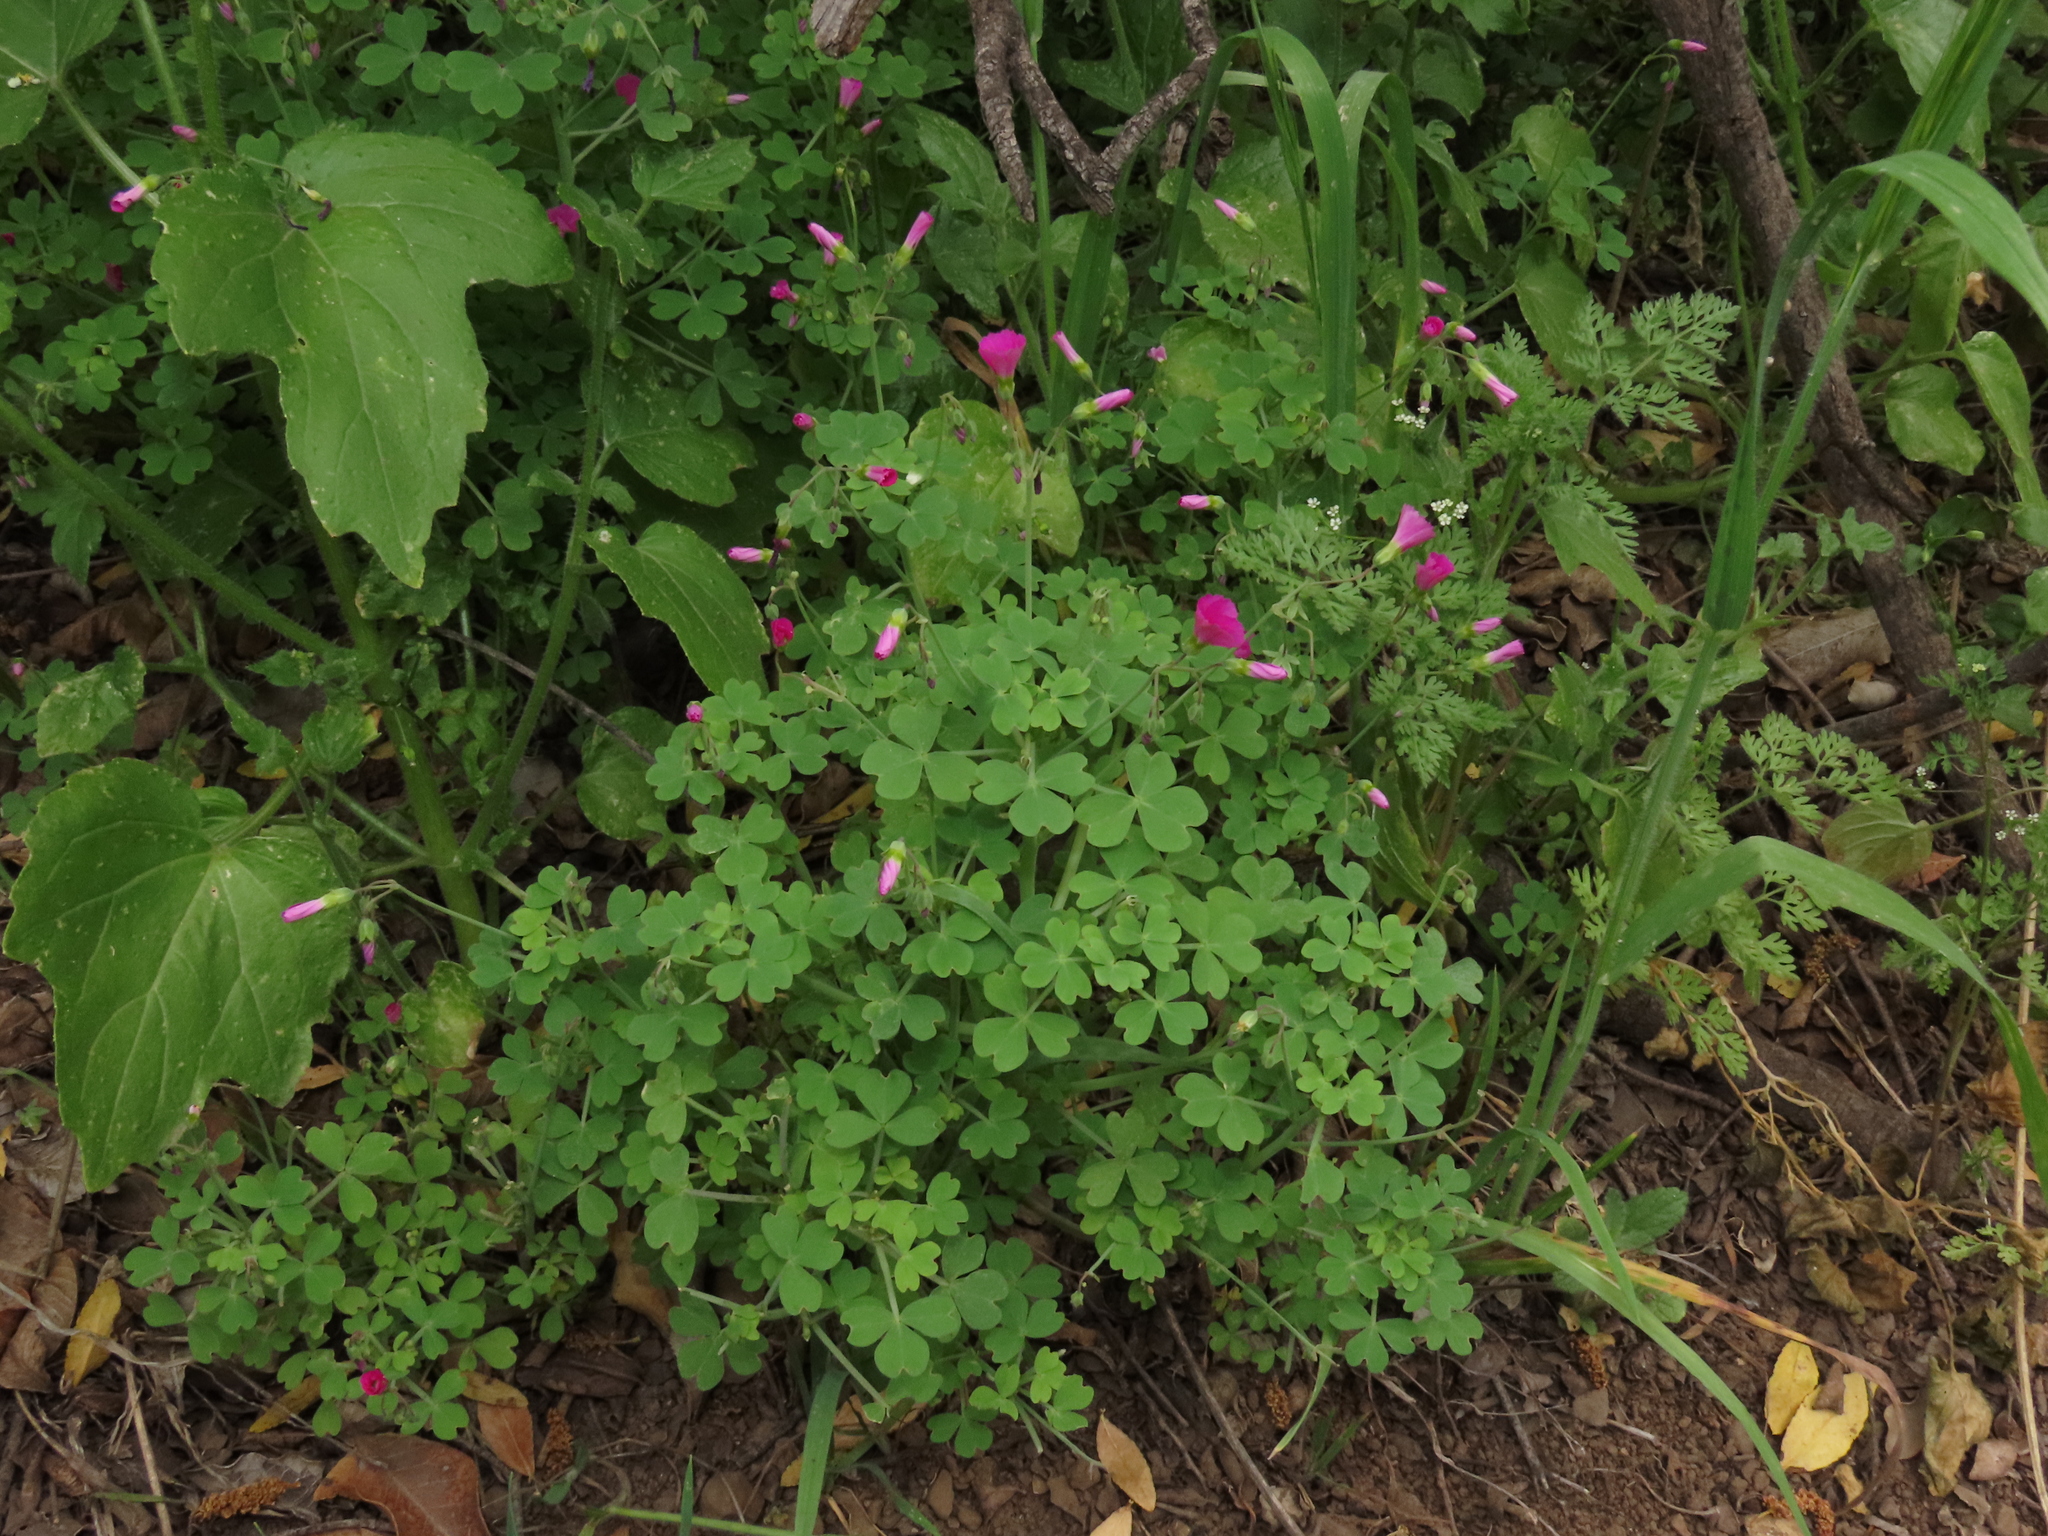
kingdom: Plantae
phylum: Tracheophyta
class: Magnoliopsida
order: Oxalidales
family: Oxalidaceae
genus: Oxalis
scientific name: Oxalis rosea
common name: Annual pink-sorrel
